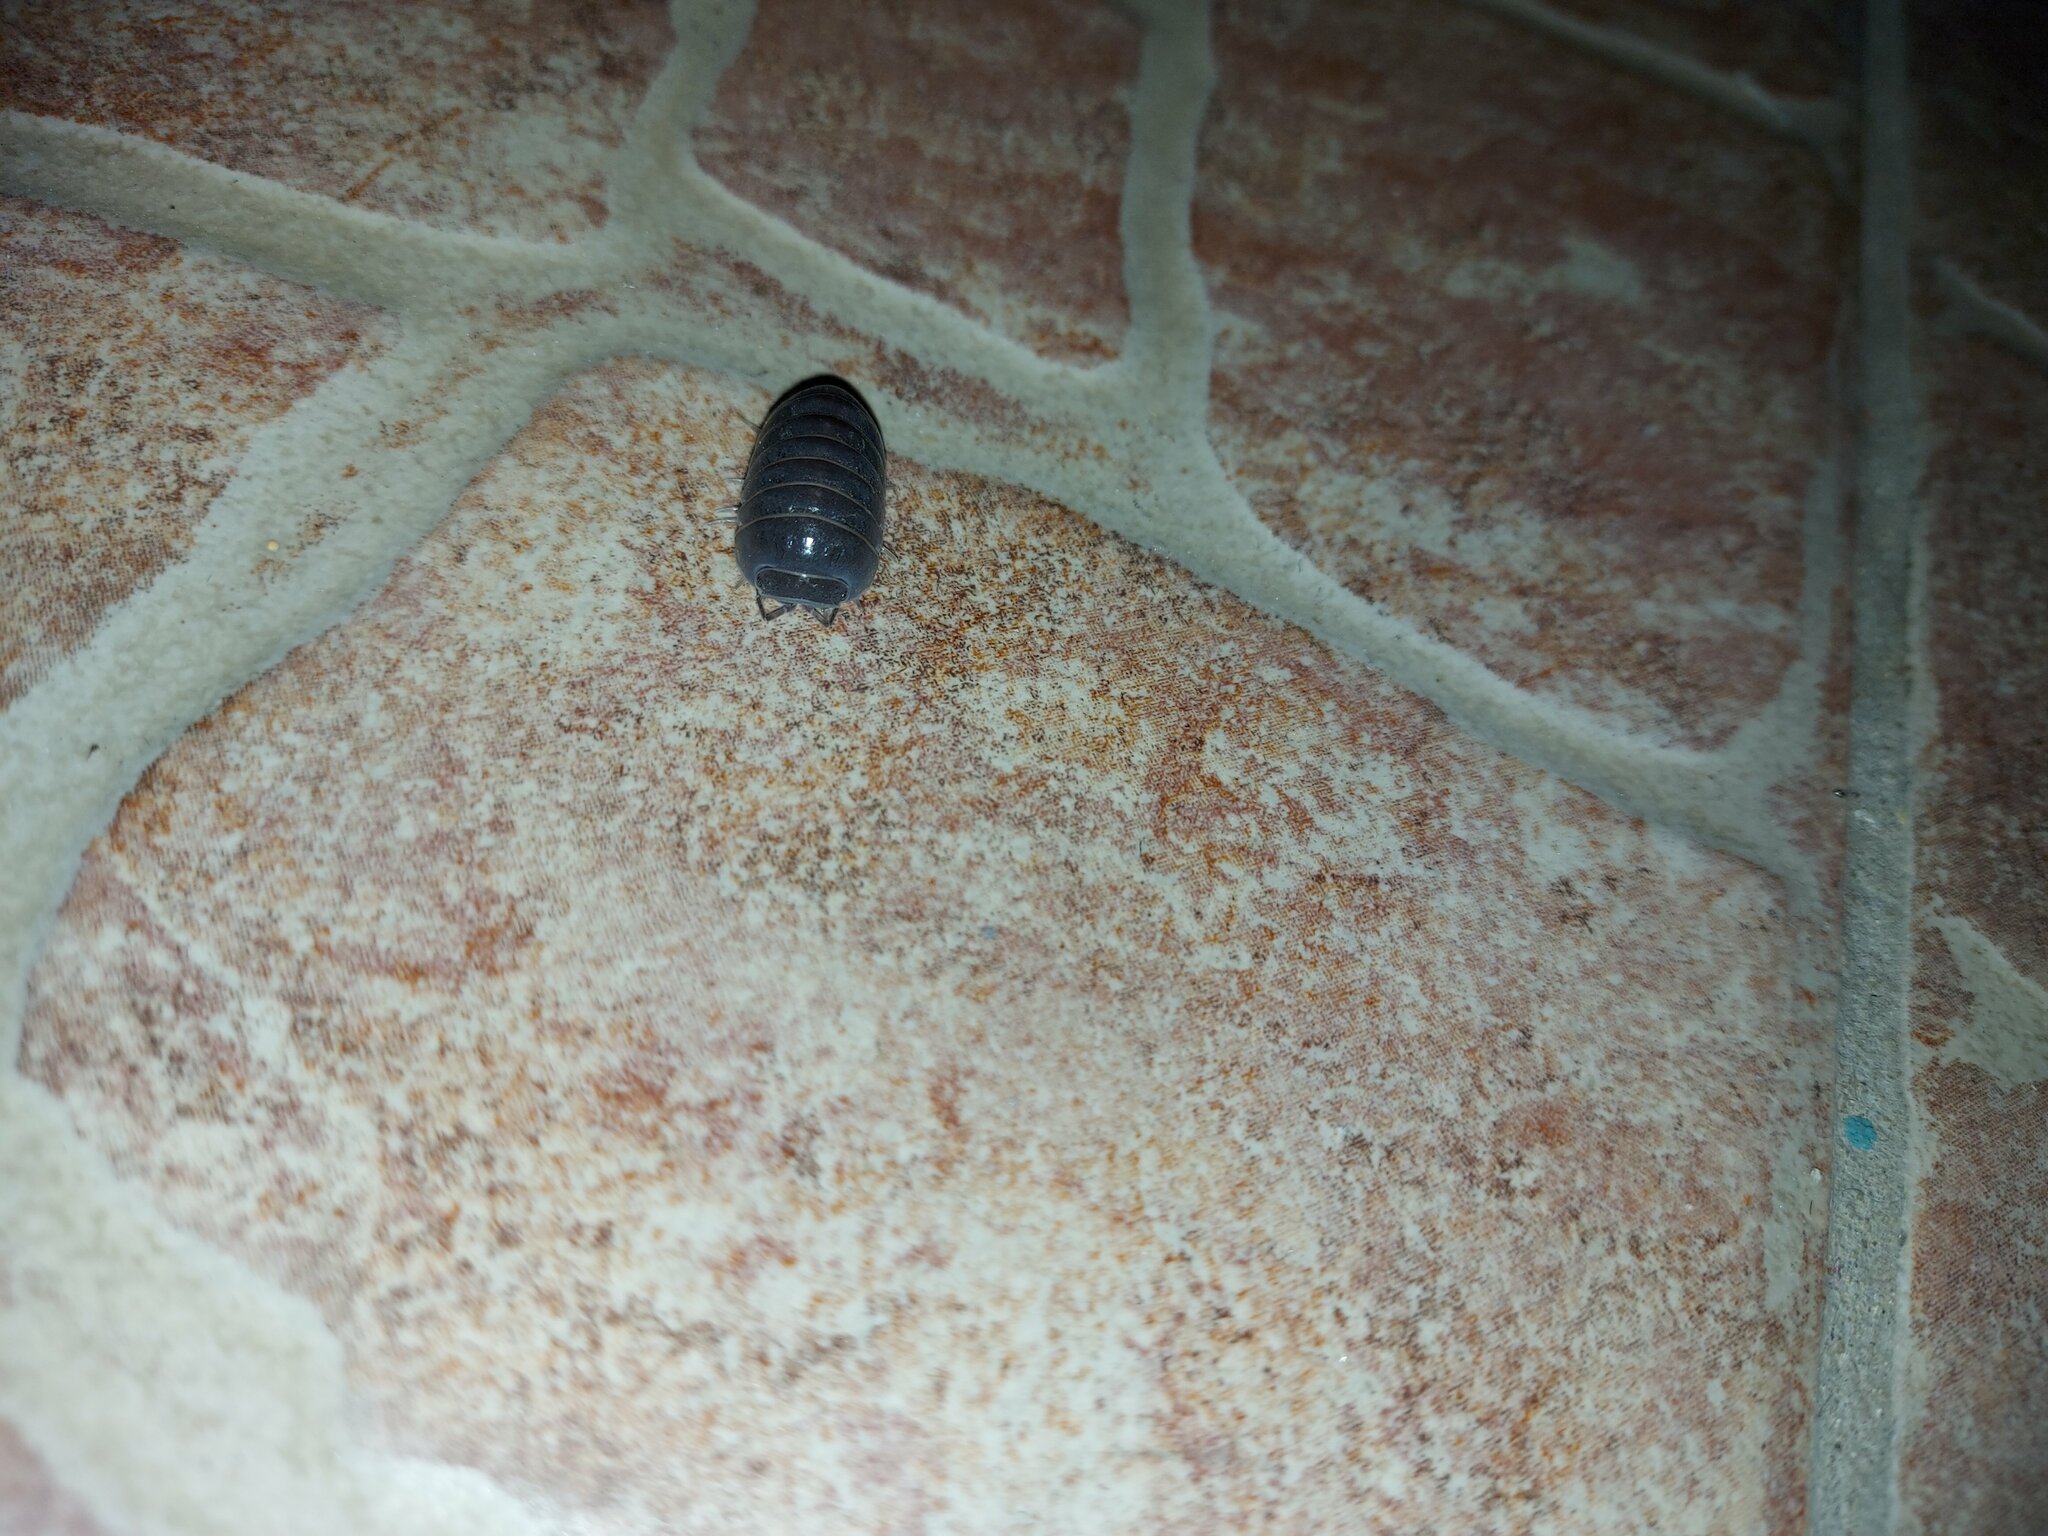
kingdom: Animalia
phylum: Arthropoda
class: Malacostraca
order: Isopoda
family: Armadillidae
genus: Armadillo
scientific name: Armadillo officinalis
